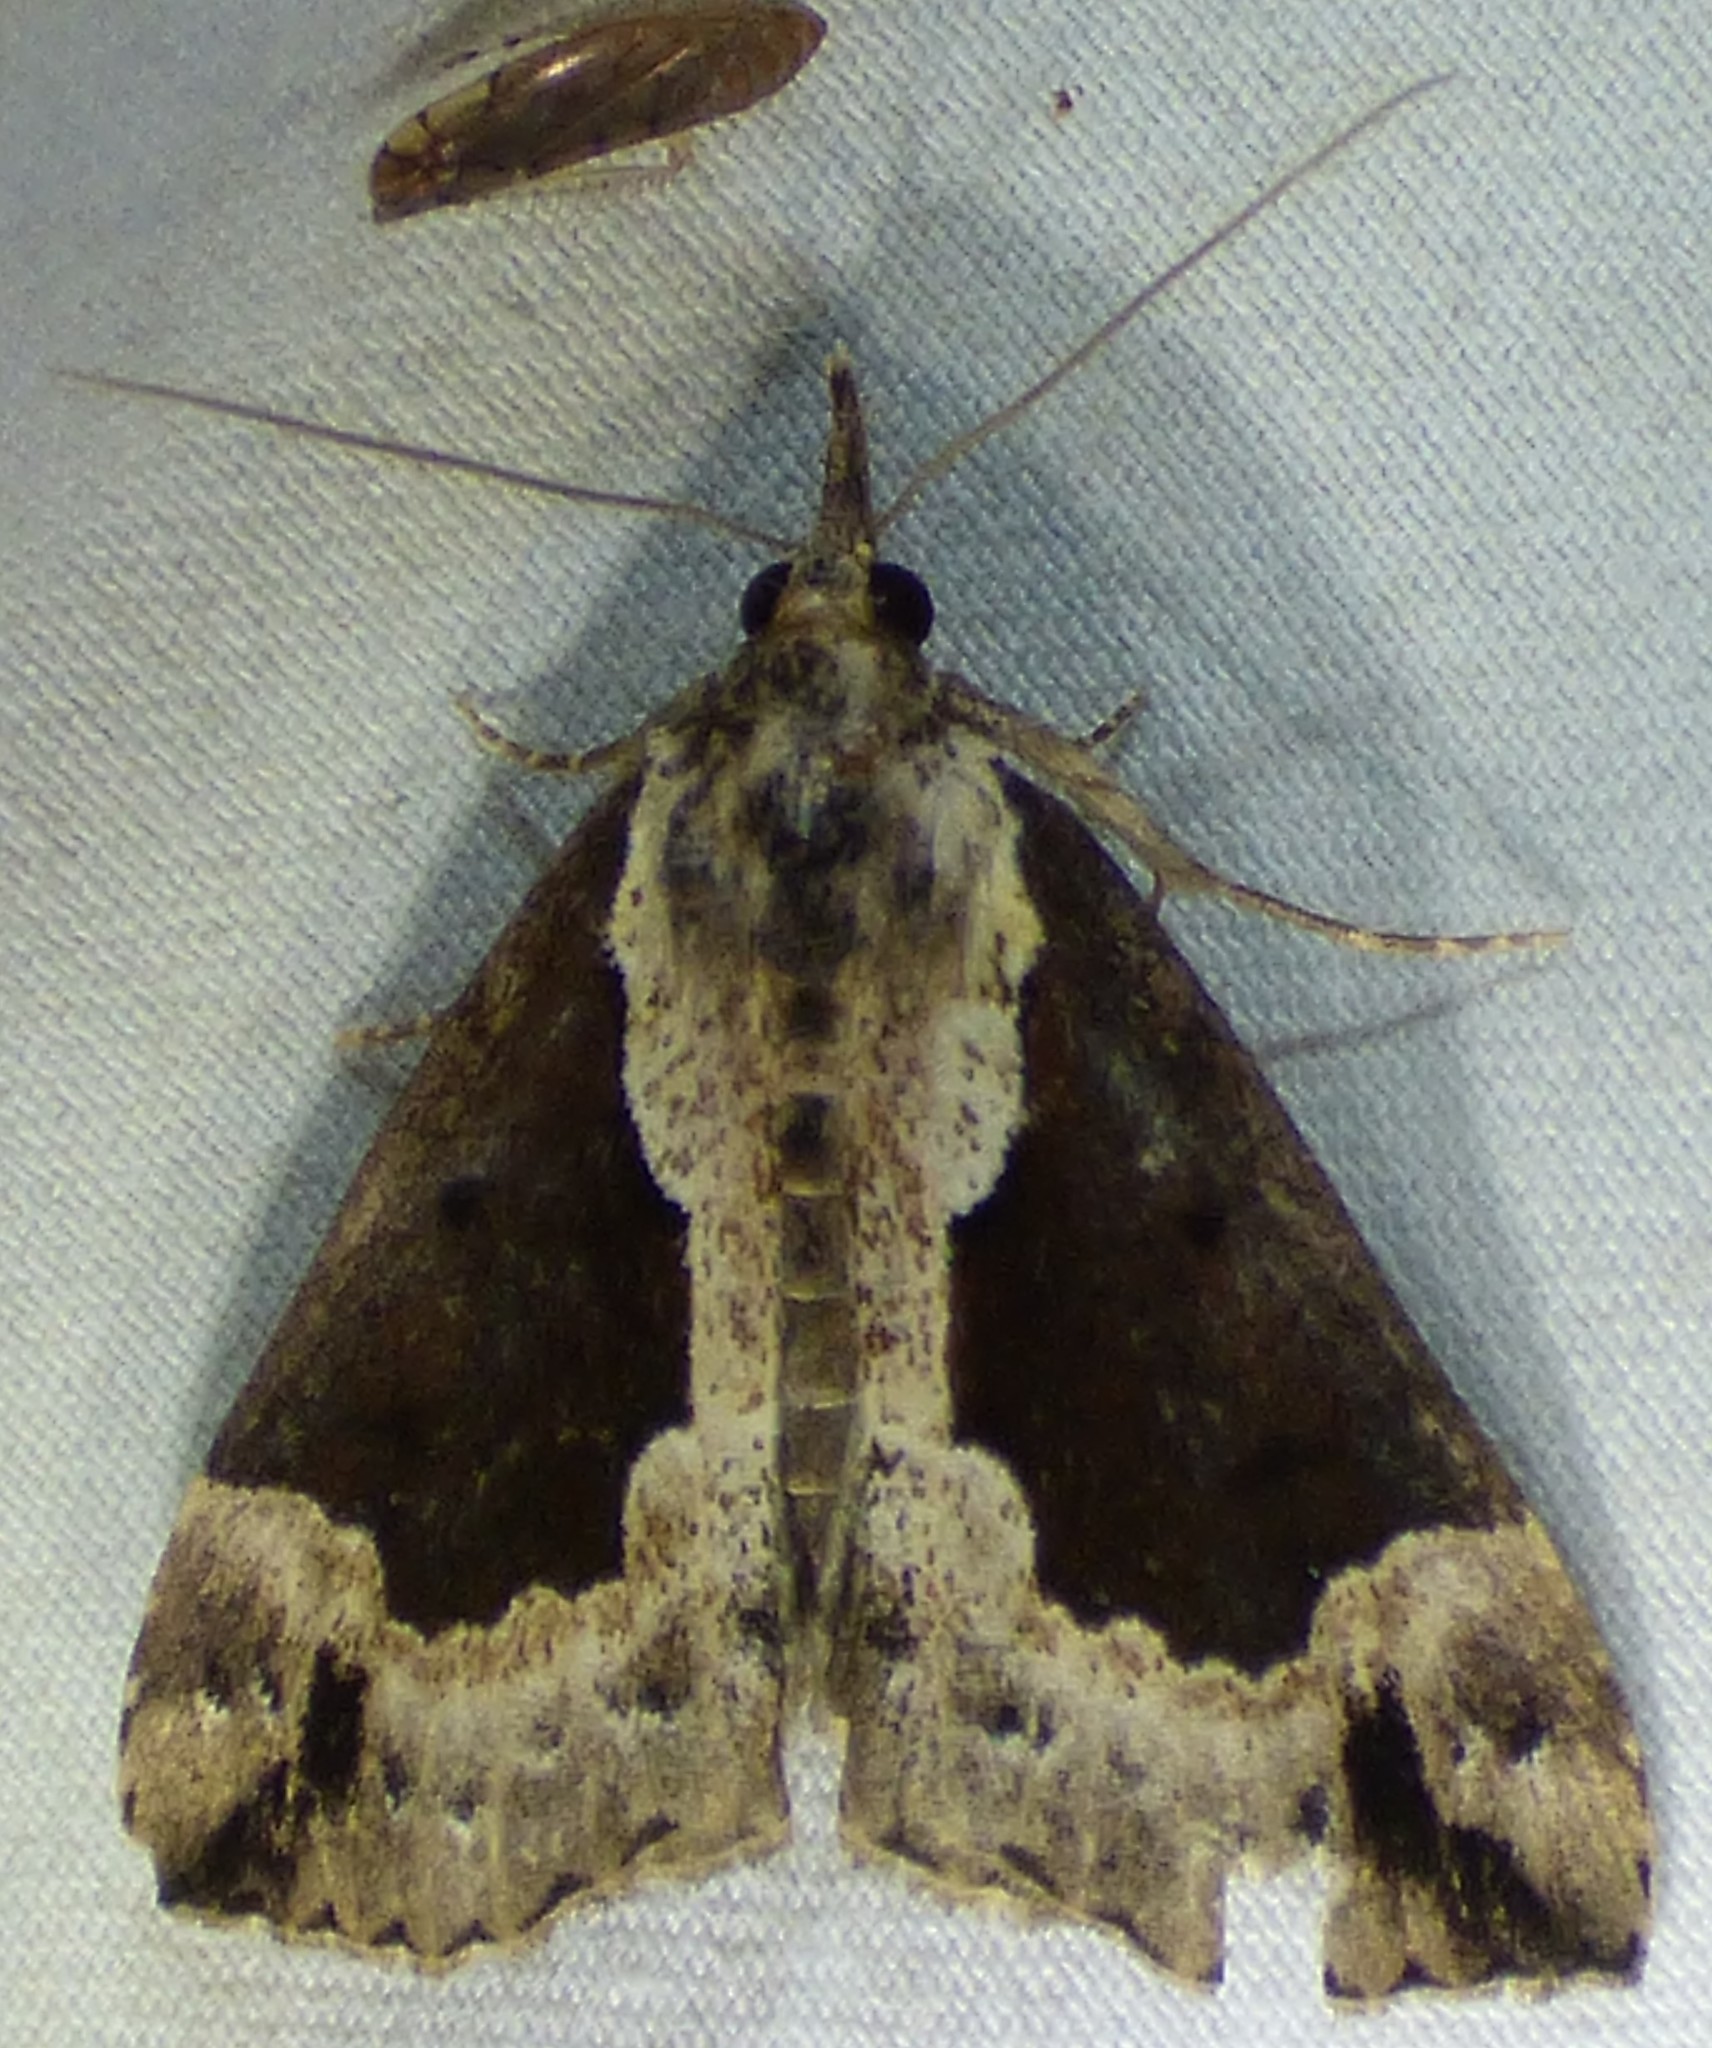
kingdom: Animalia
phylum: Arthropoda
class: Insecta
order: Lepidoptera
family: Erebidae
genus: Hypena
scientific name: Hypena baltimoralis
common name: Baltimore snout
